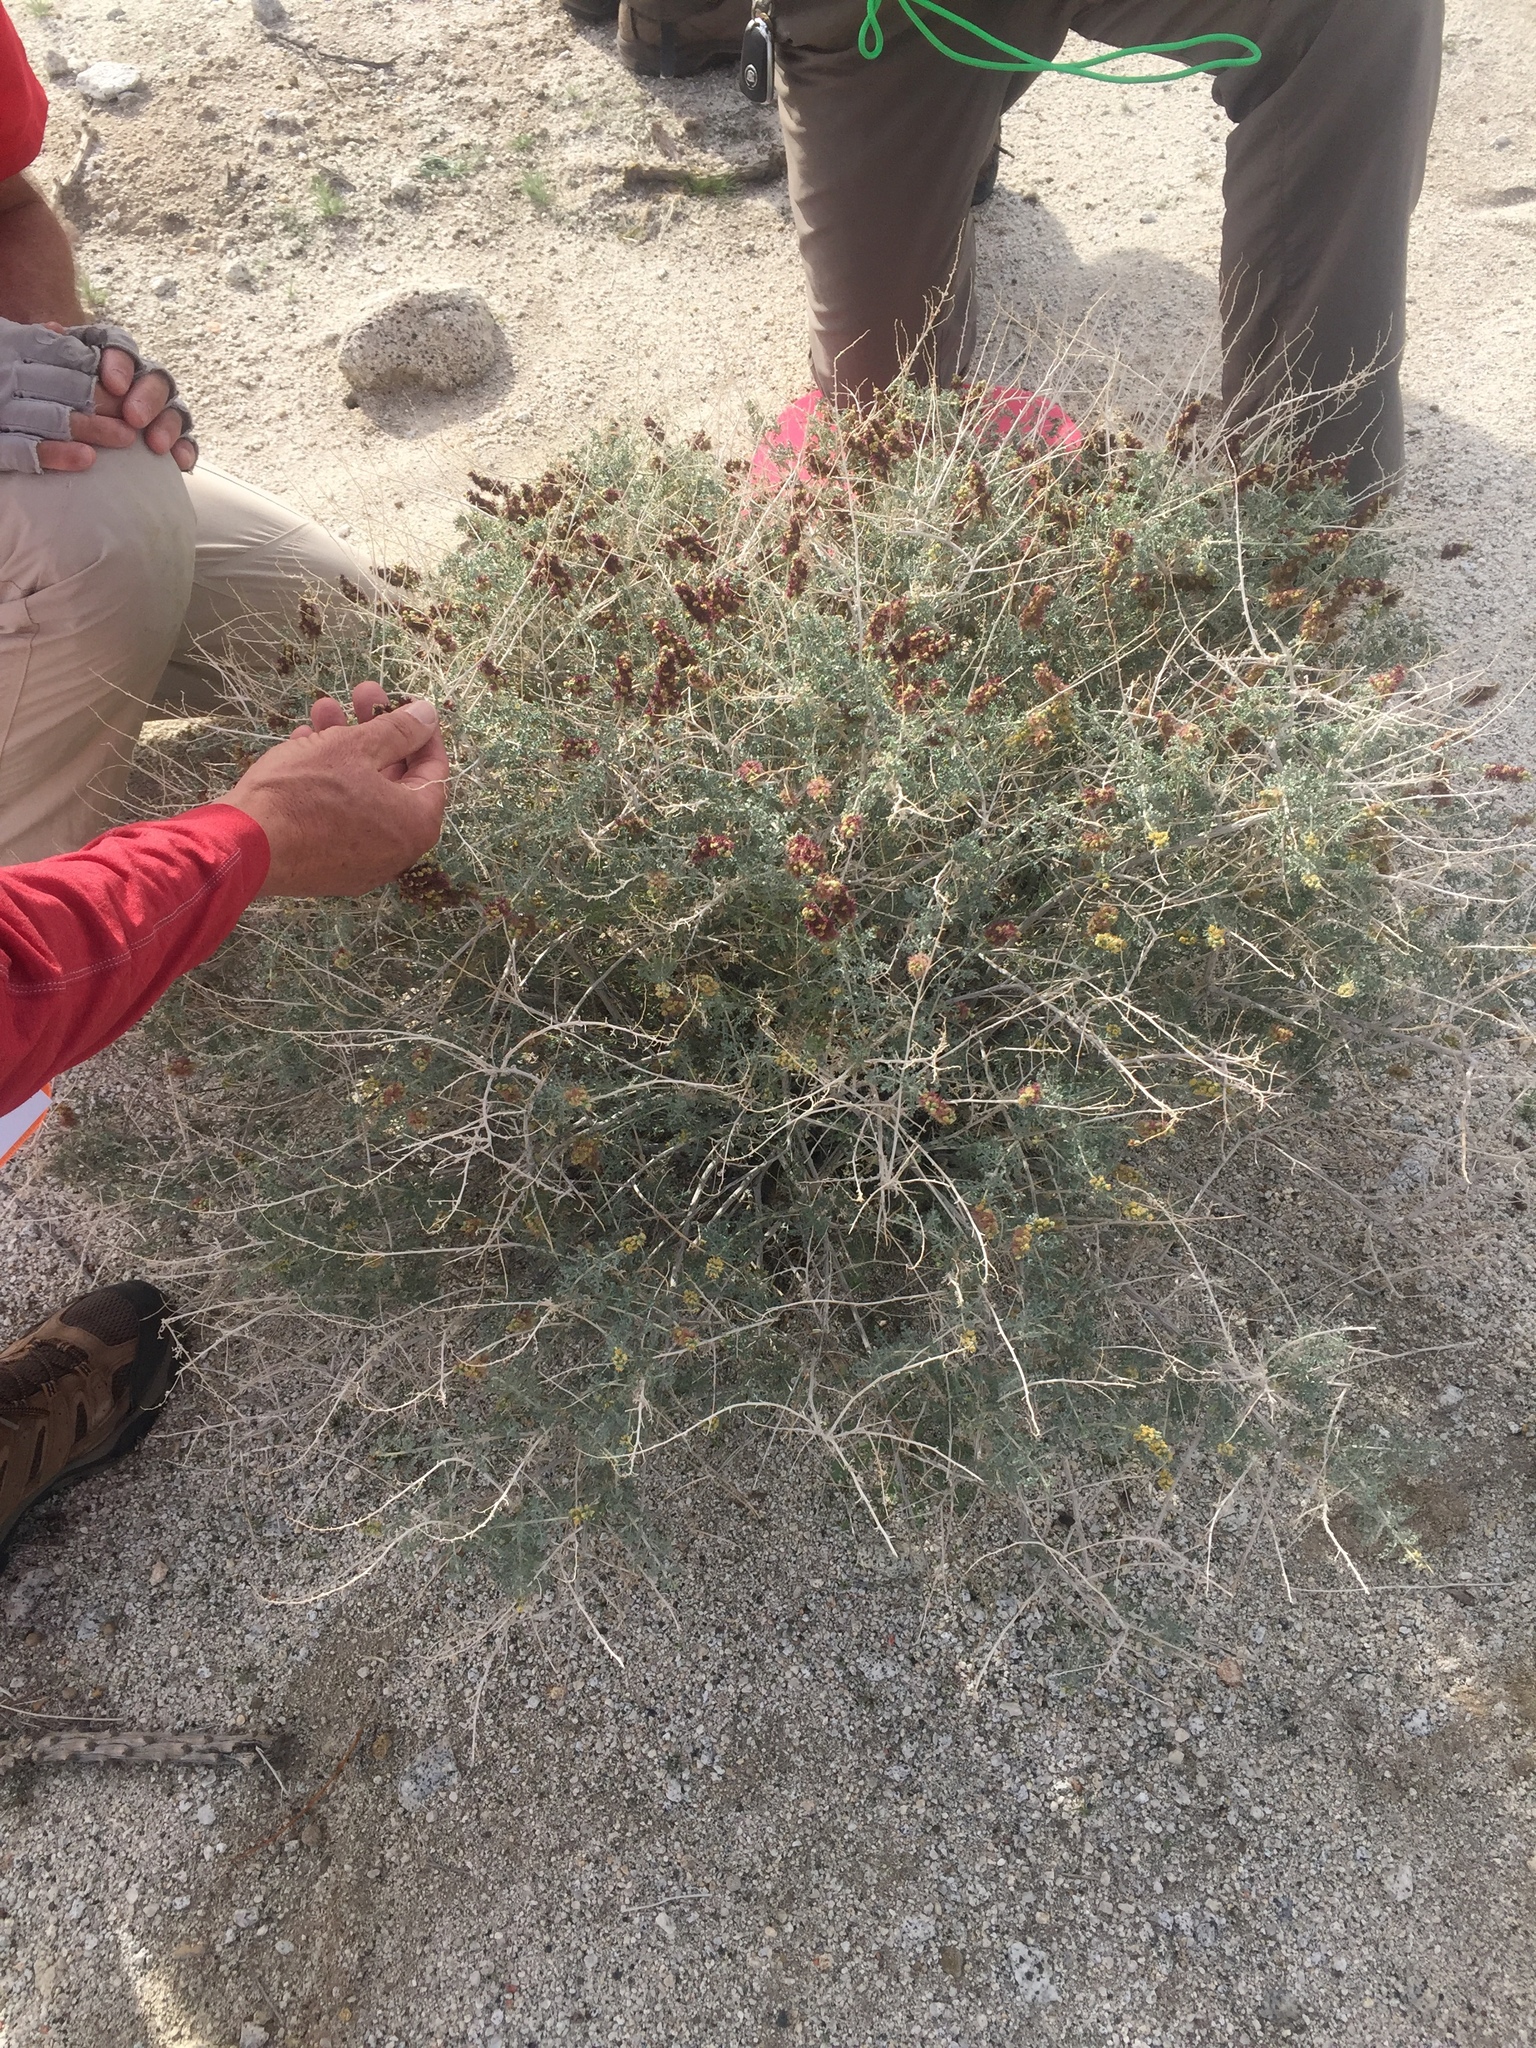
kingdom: Plantae
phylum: Tracheophyta
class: Magnoliopsida
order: Asterales
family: Asteraceae
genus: Ambrosia
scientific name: Ambrosia dumosa
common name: Bur-sage
